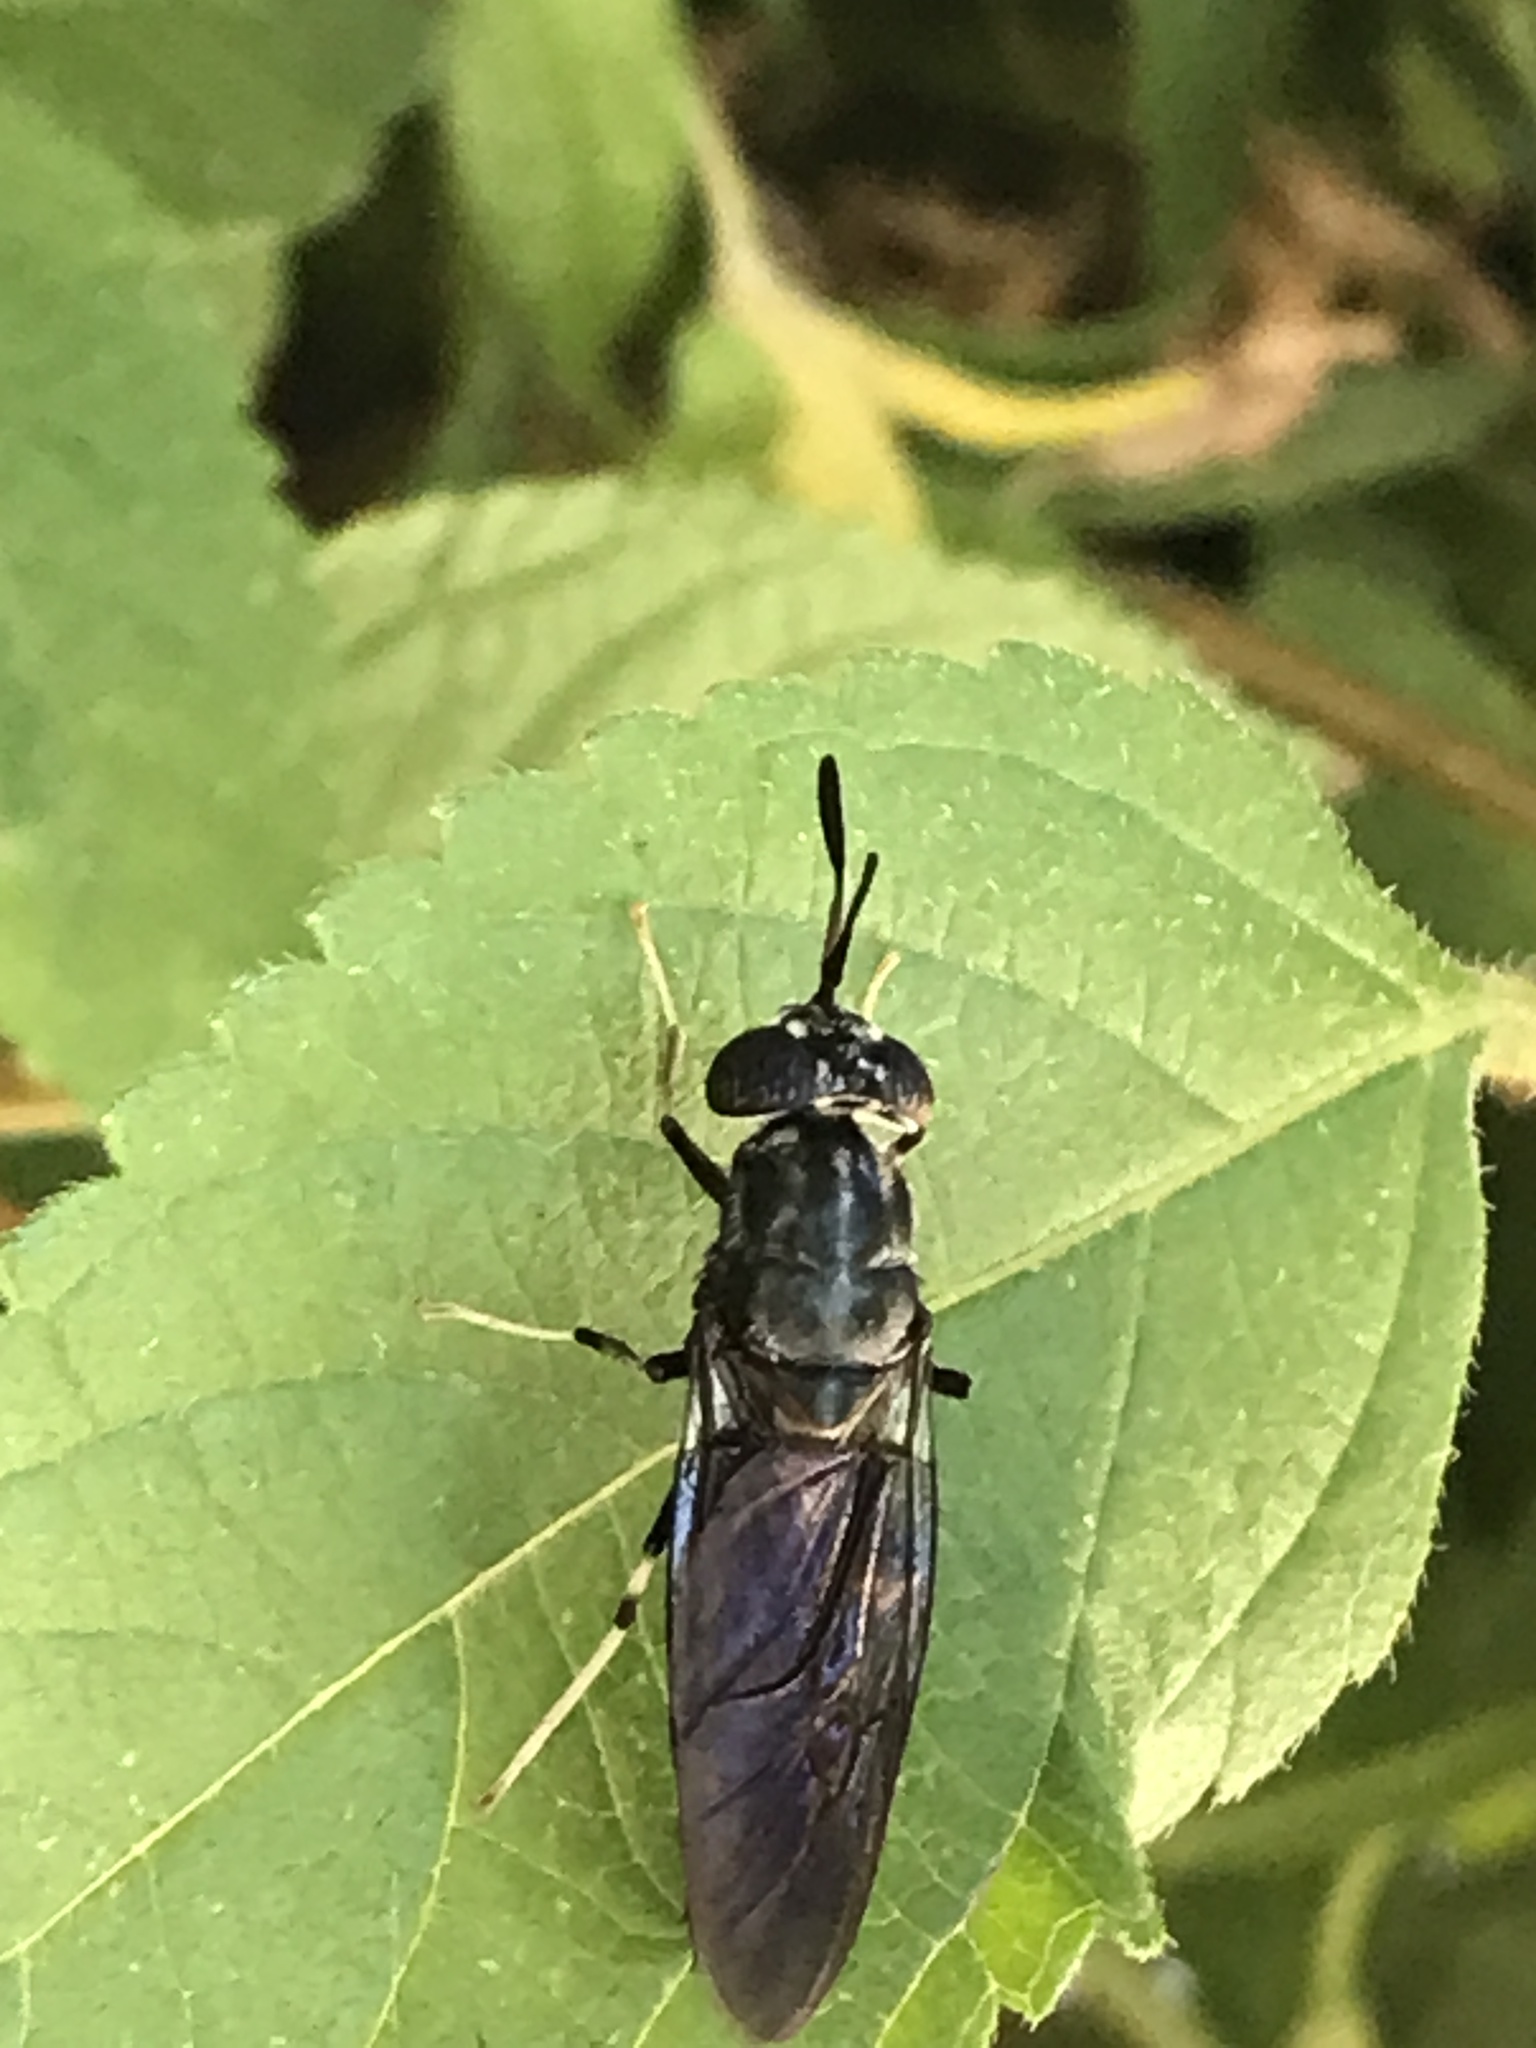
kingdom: Animalia
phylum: Arthropoda
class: Insecta
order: Diptera
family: Stratiomyidae
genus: Hermetia
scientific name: Hermetia illucens
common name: Black soldier fly
